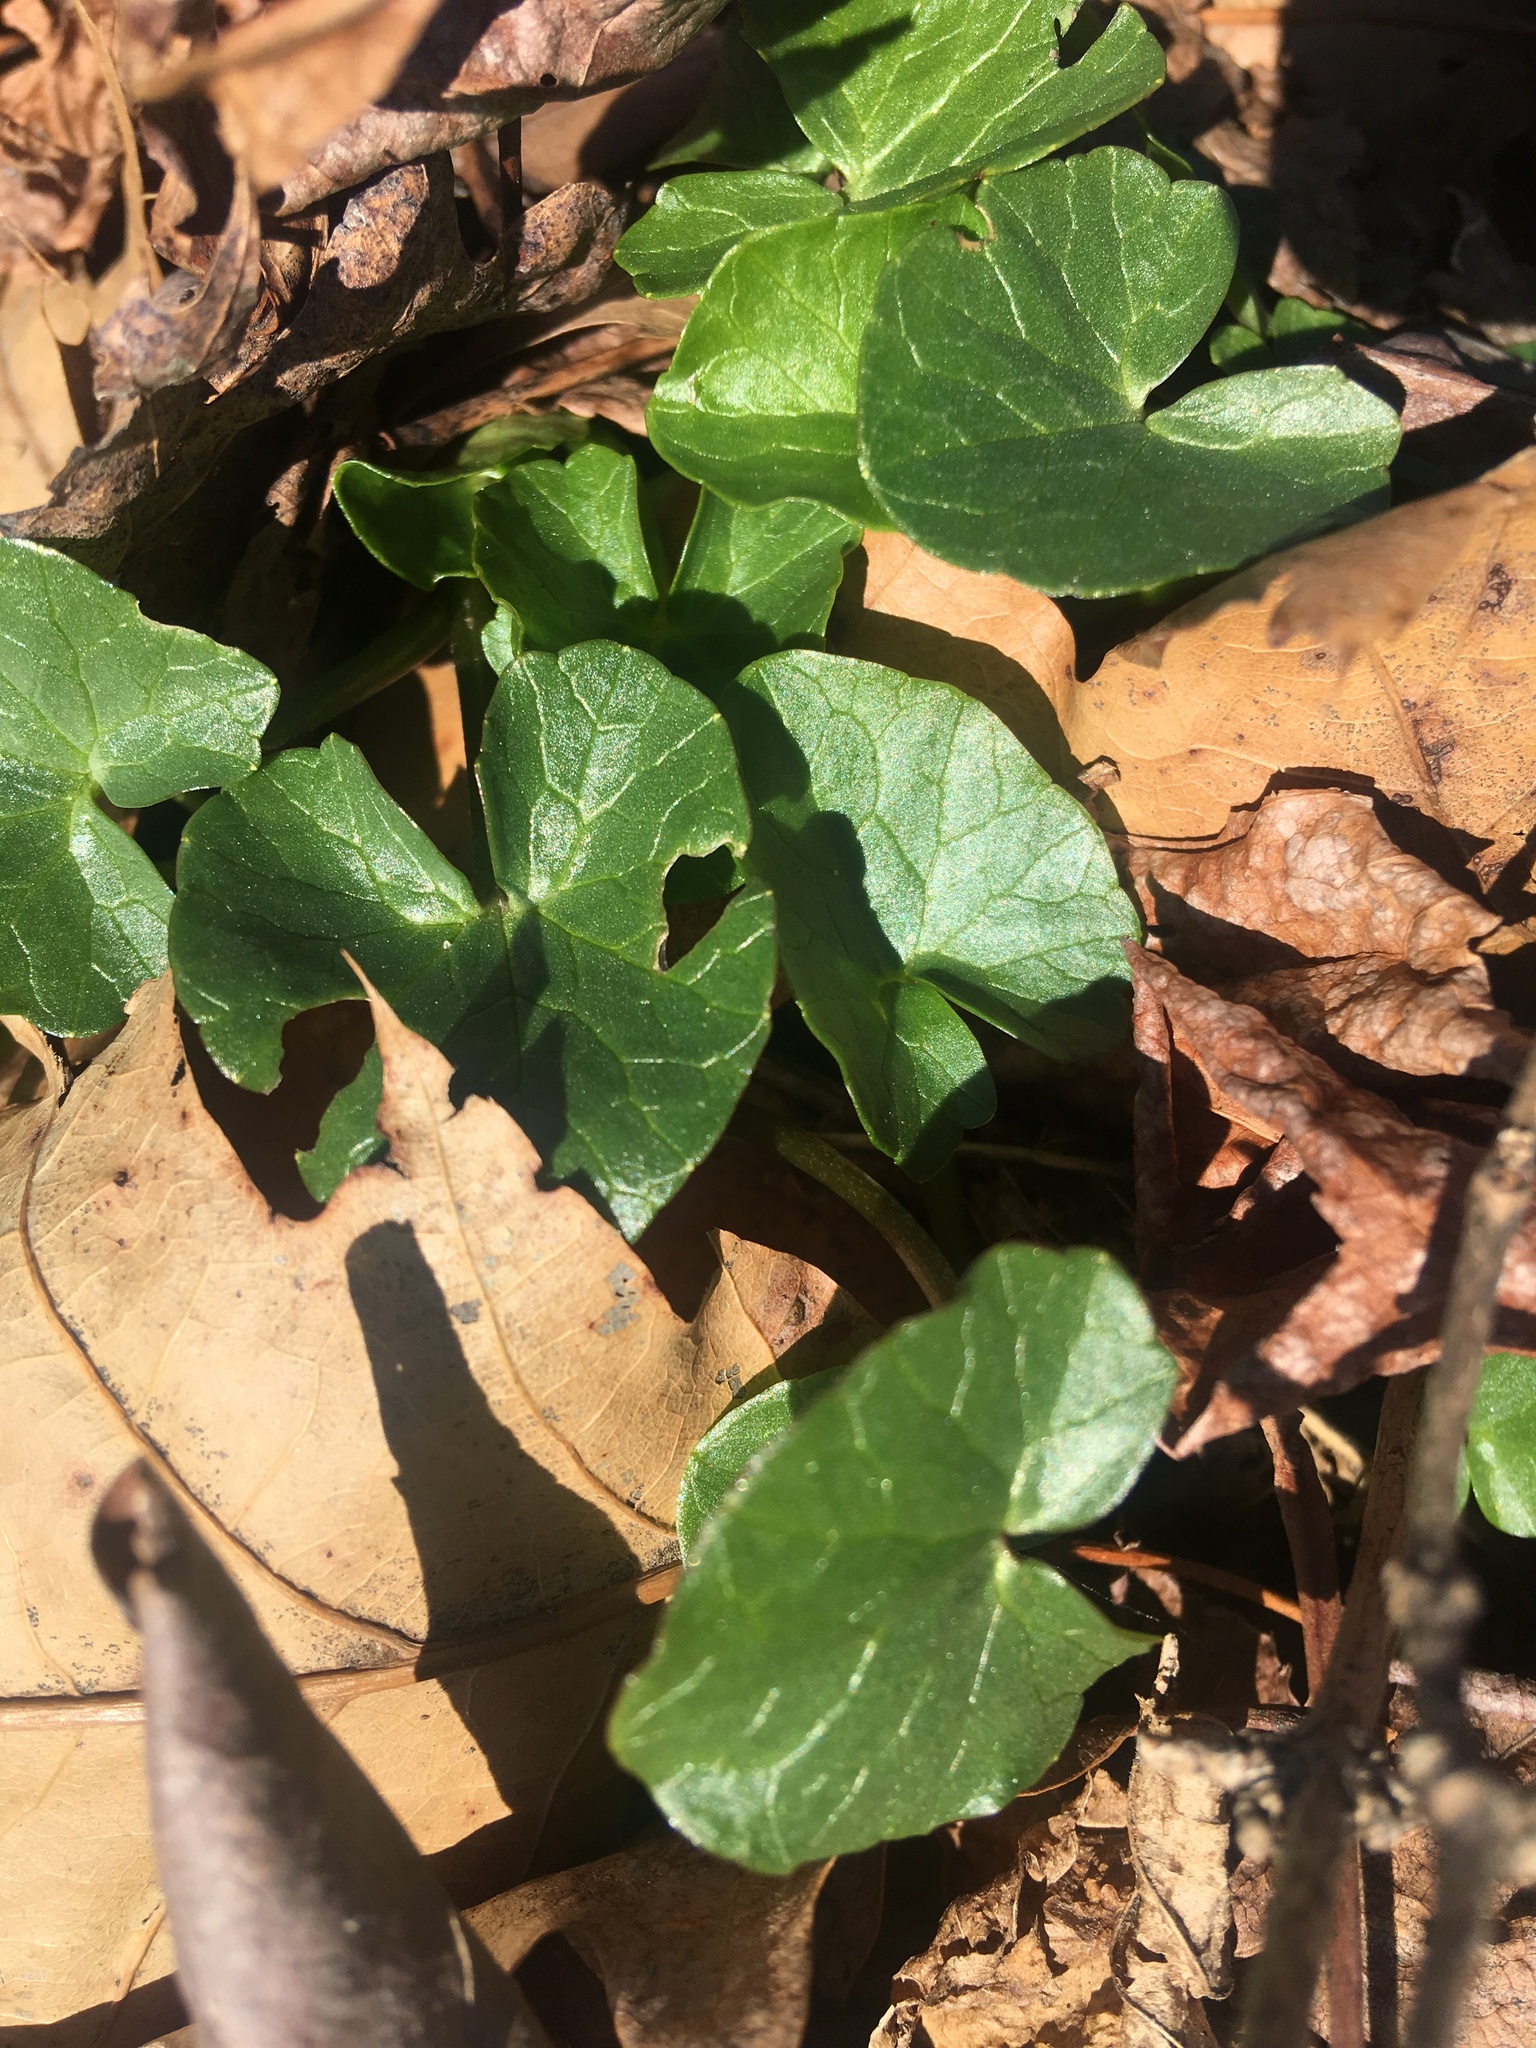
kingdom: Plantae
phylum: Tracheophyta
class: Magnoliopsida
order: Ranunculales
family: Ranunculaceae
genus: Ficaria
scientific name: Ficaria verna
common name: Lesser celandine
